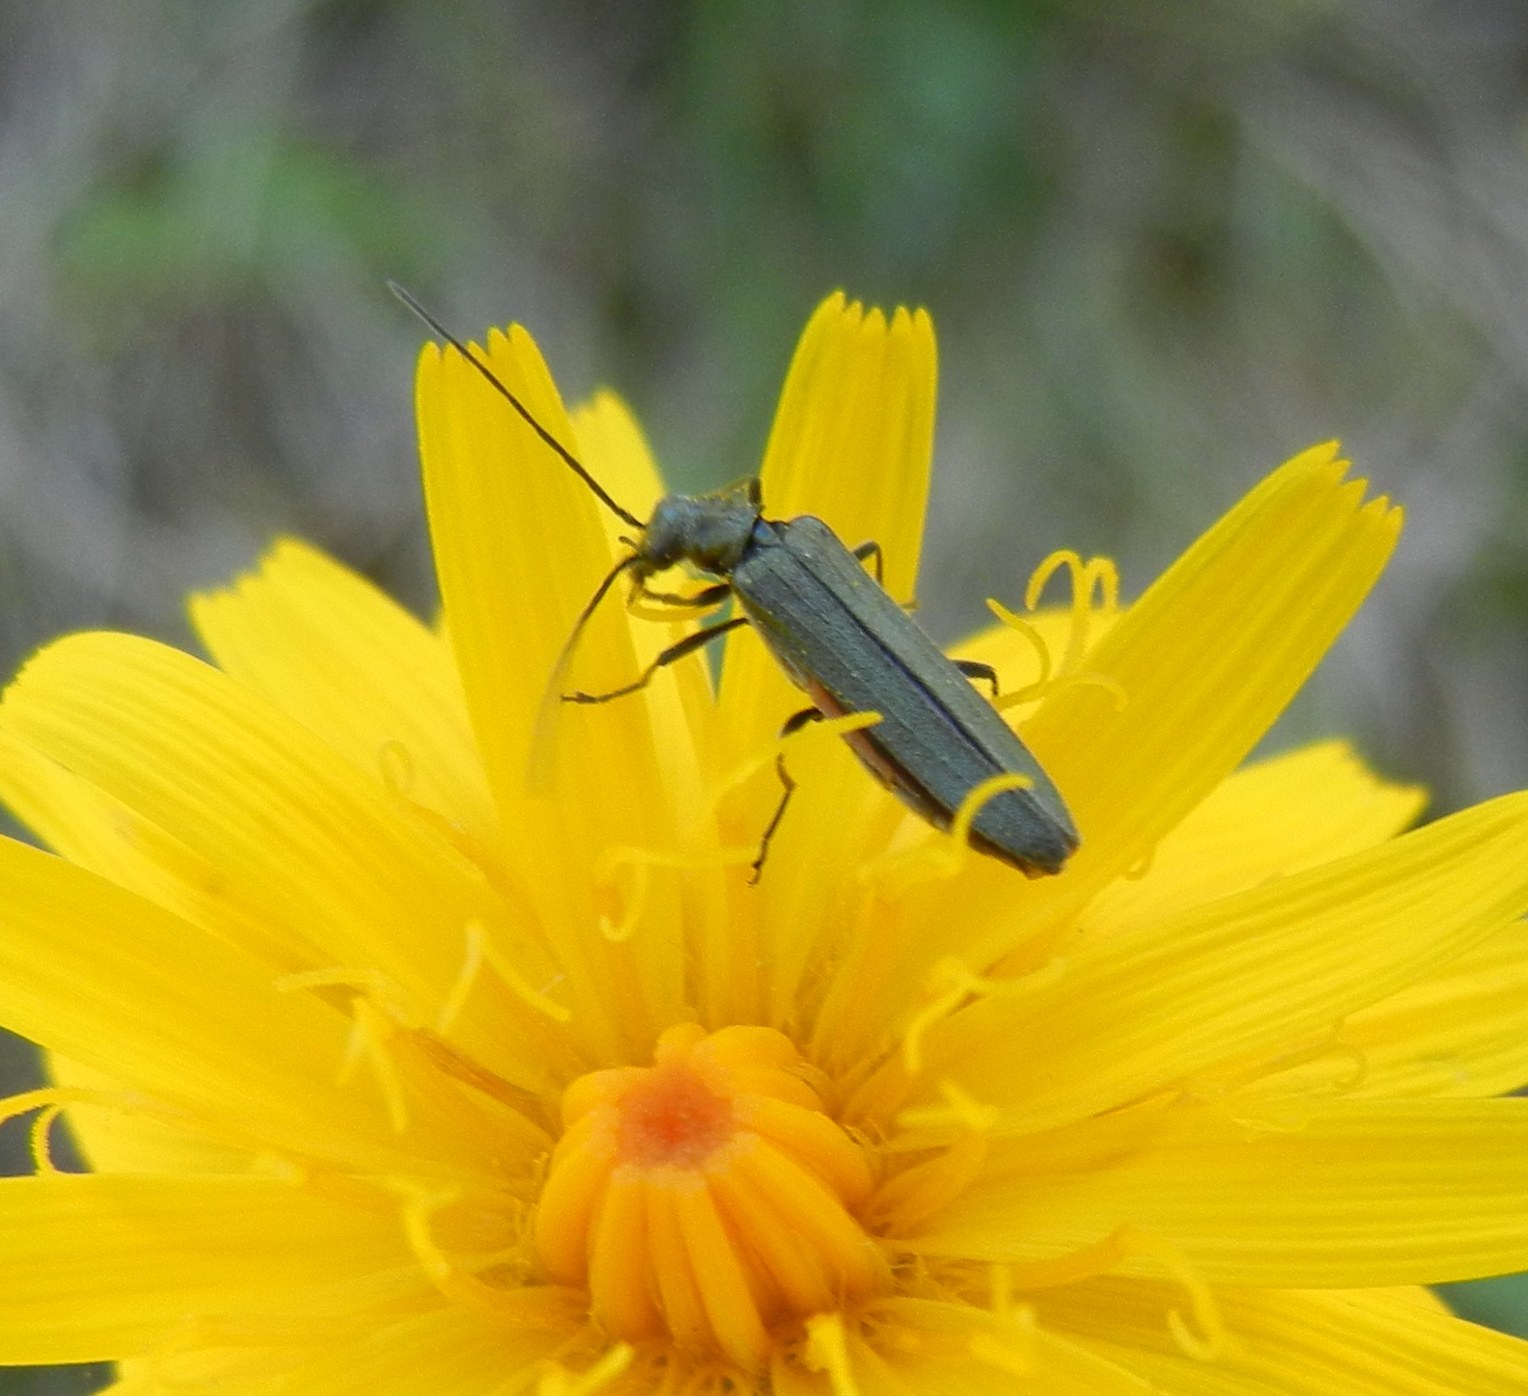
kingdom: Animalia
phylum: Arthropoda
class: Insecta
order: Coleoptera
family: Oedemeridae
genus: Oedemera
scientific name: Oedemera lurida
